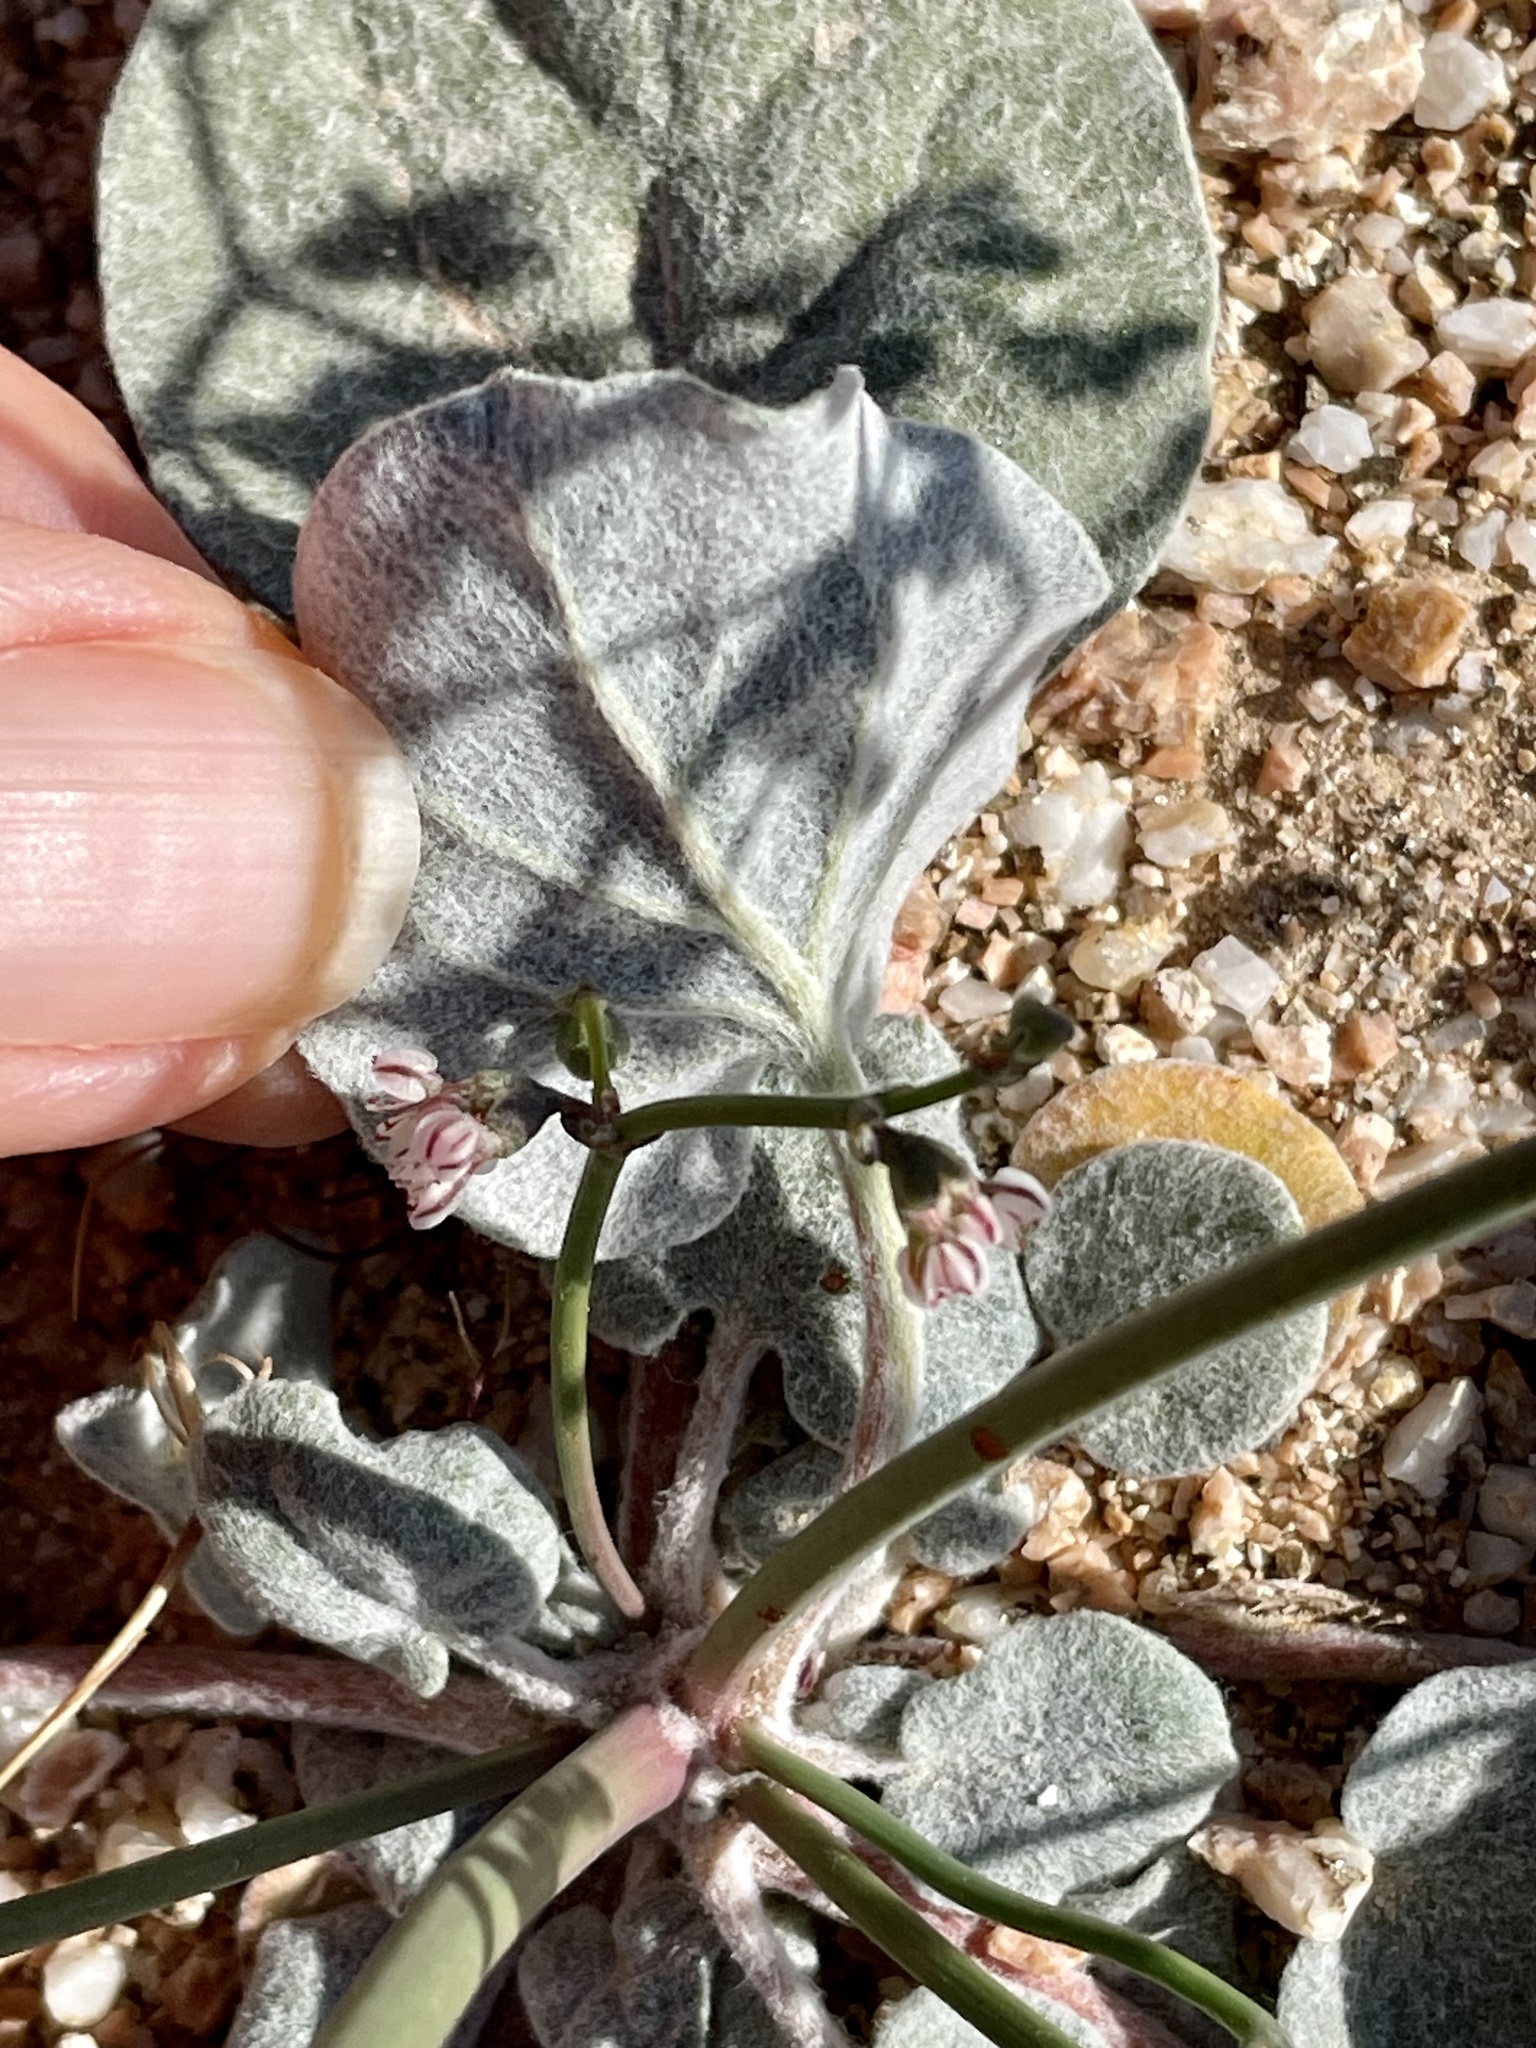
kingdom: Plantae
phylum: Tracheophyta
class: Magnoliopsida
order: Caryophyllales
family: Polygonaceae
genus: Eriogonum
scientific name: Eriogonum deflexum
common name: Skeleton-weed
